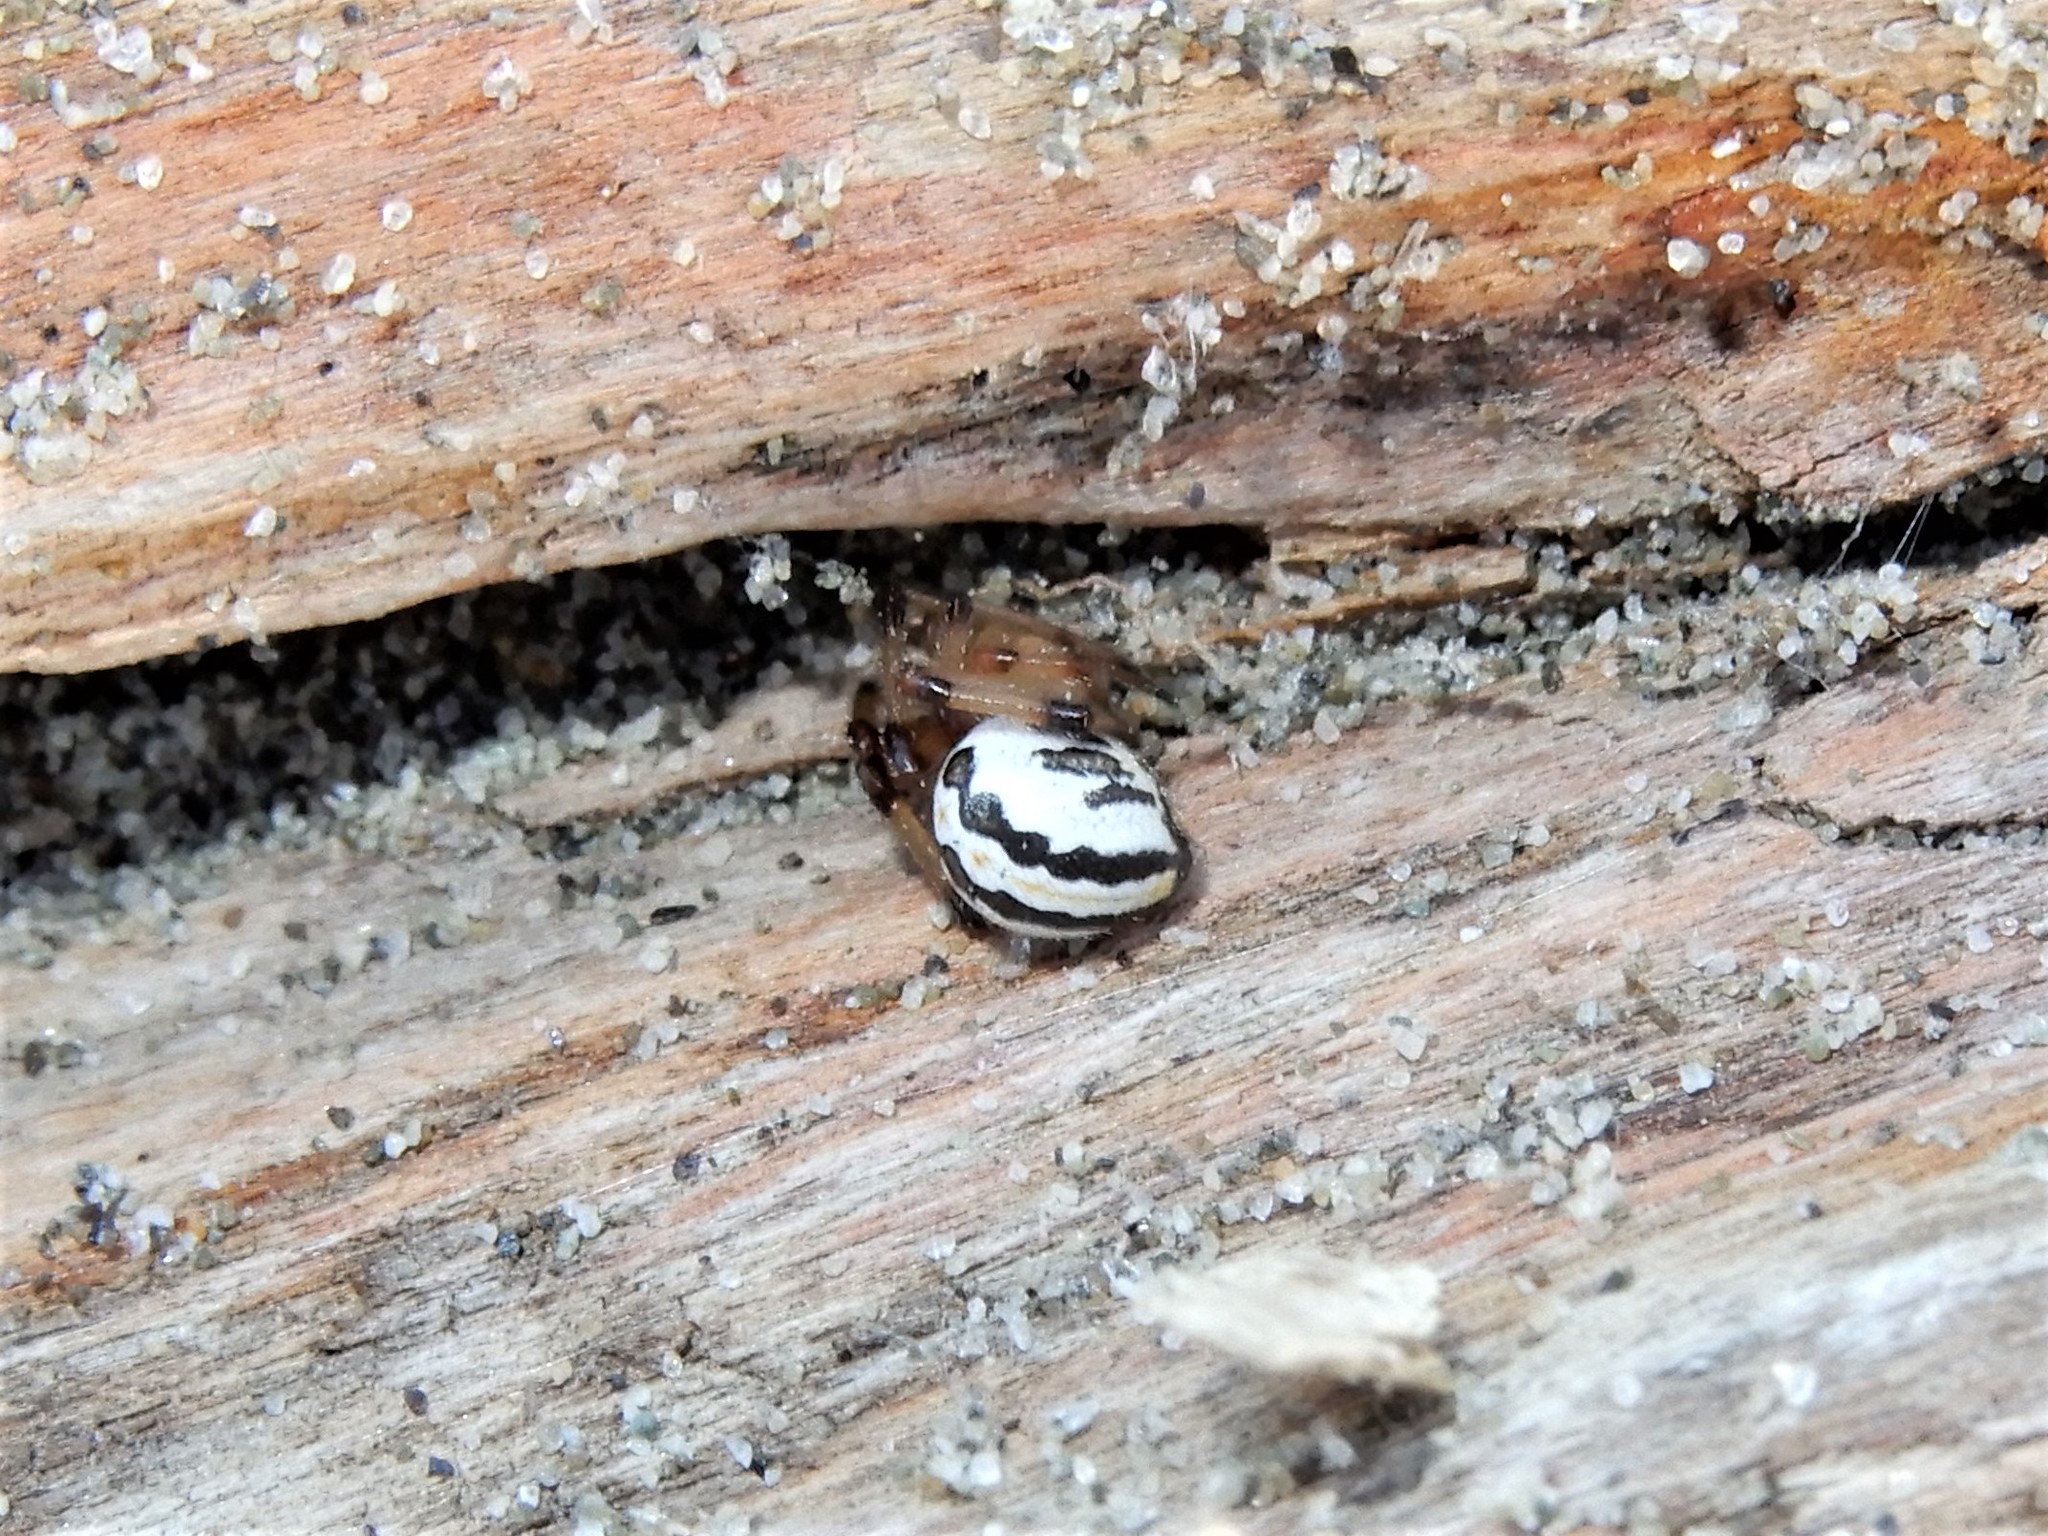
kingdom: Animalia
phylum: Arthropoda
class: Arachnida
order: Araneae
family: Theridiidae
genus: Latrodectus
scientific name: Latrodectus katipo
